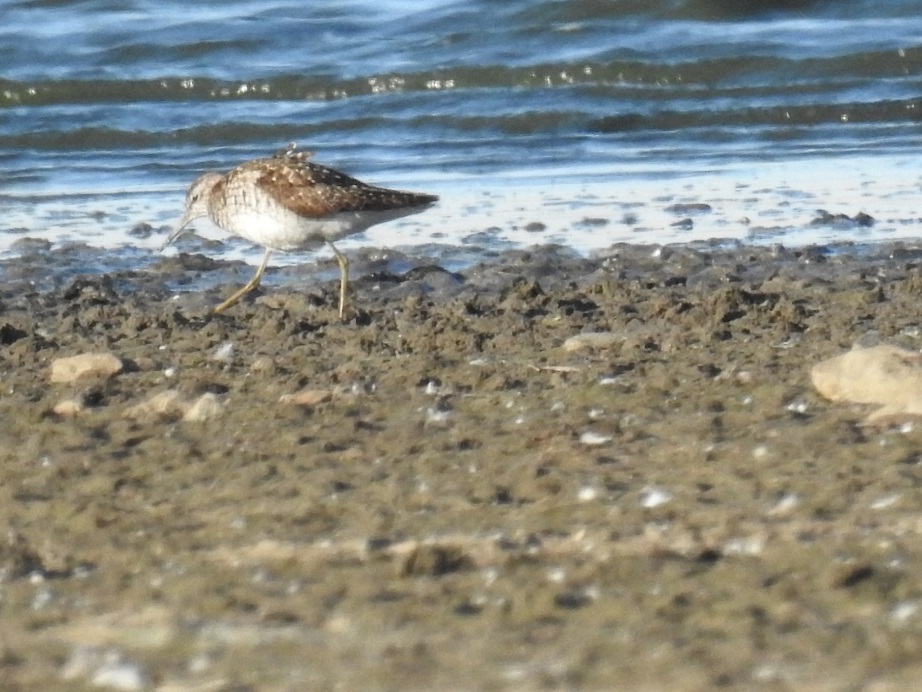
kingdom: Animalia
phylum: Chordata
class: Aves
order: Charadriiformes
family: Scolopacidae
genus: Tringa
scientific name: Tringa glareola
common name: Wood sandpiper
